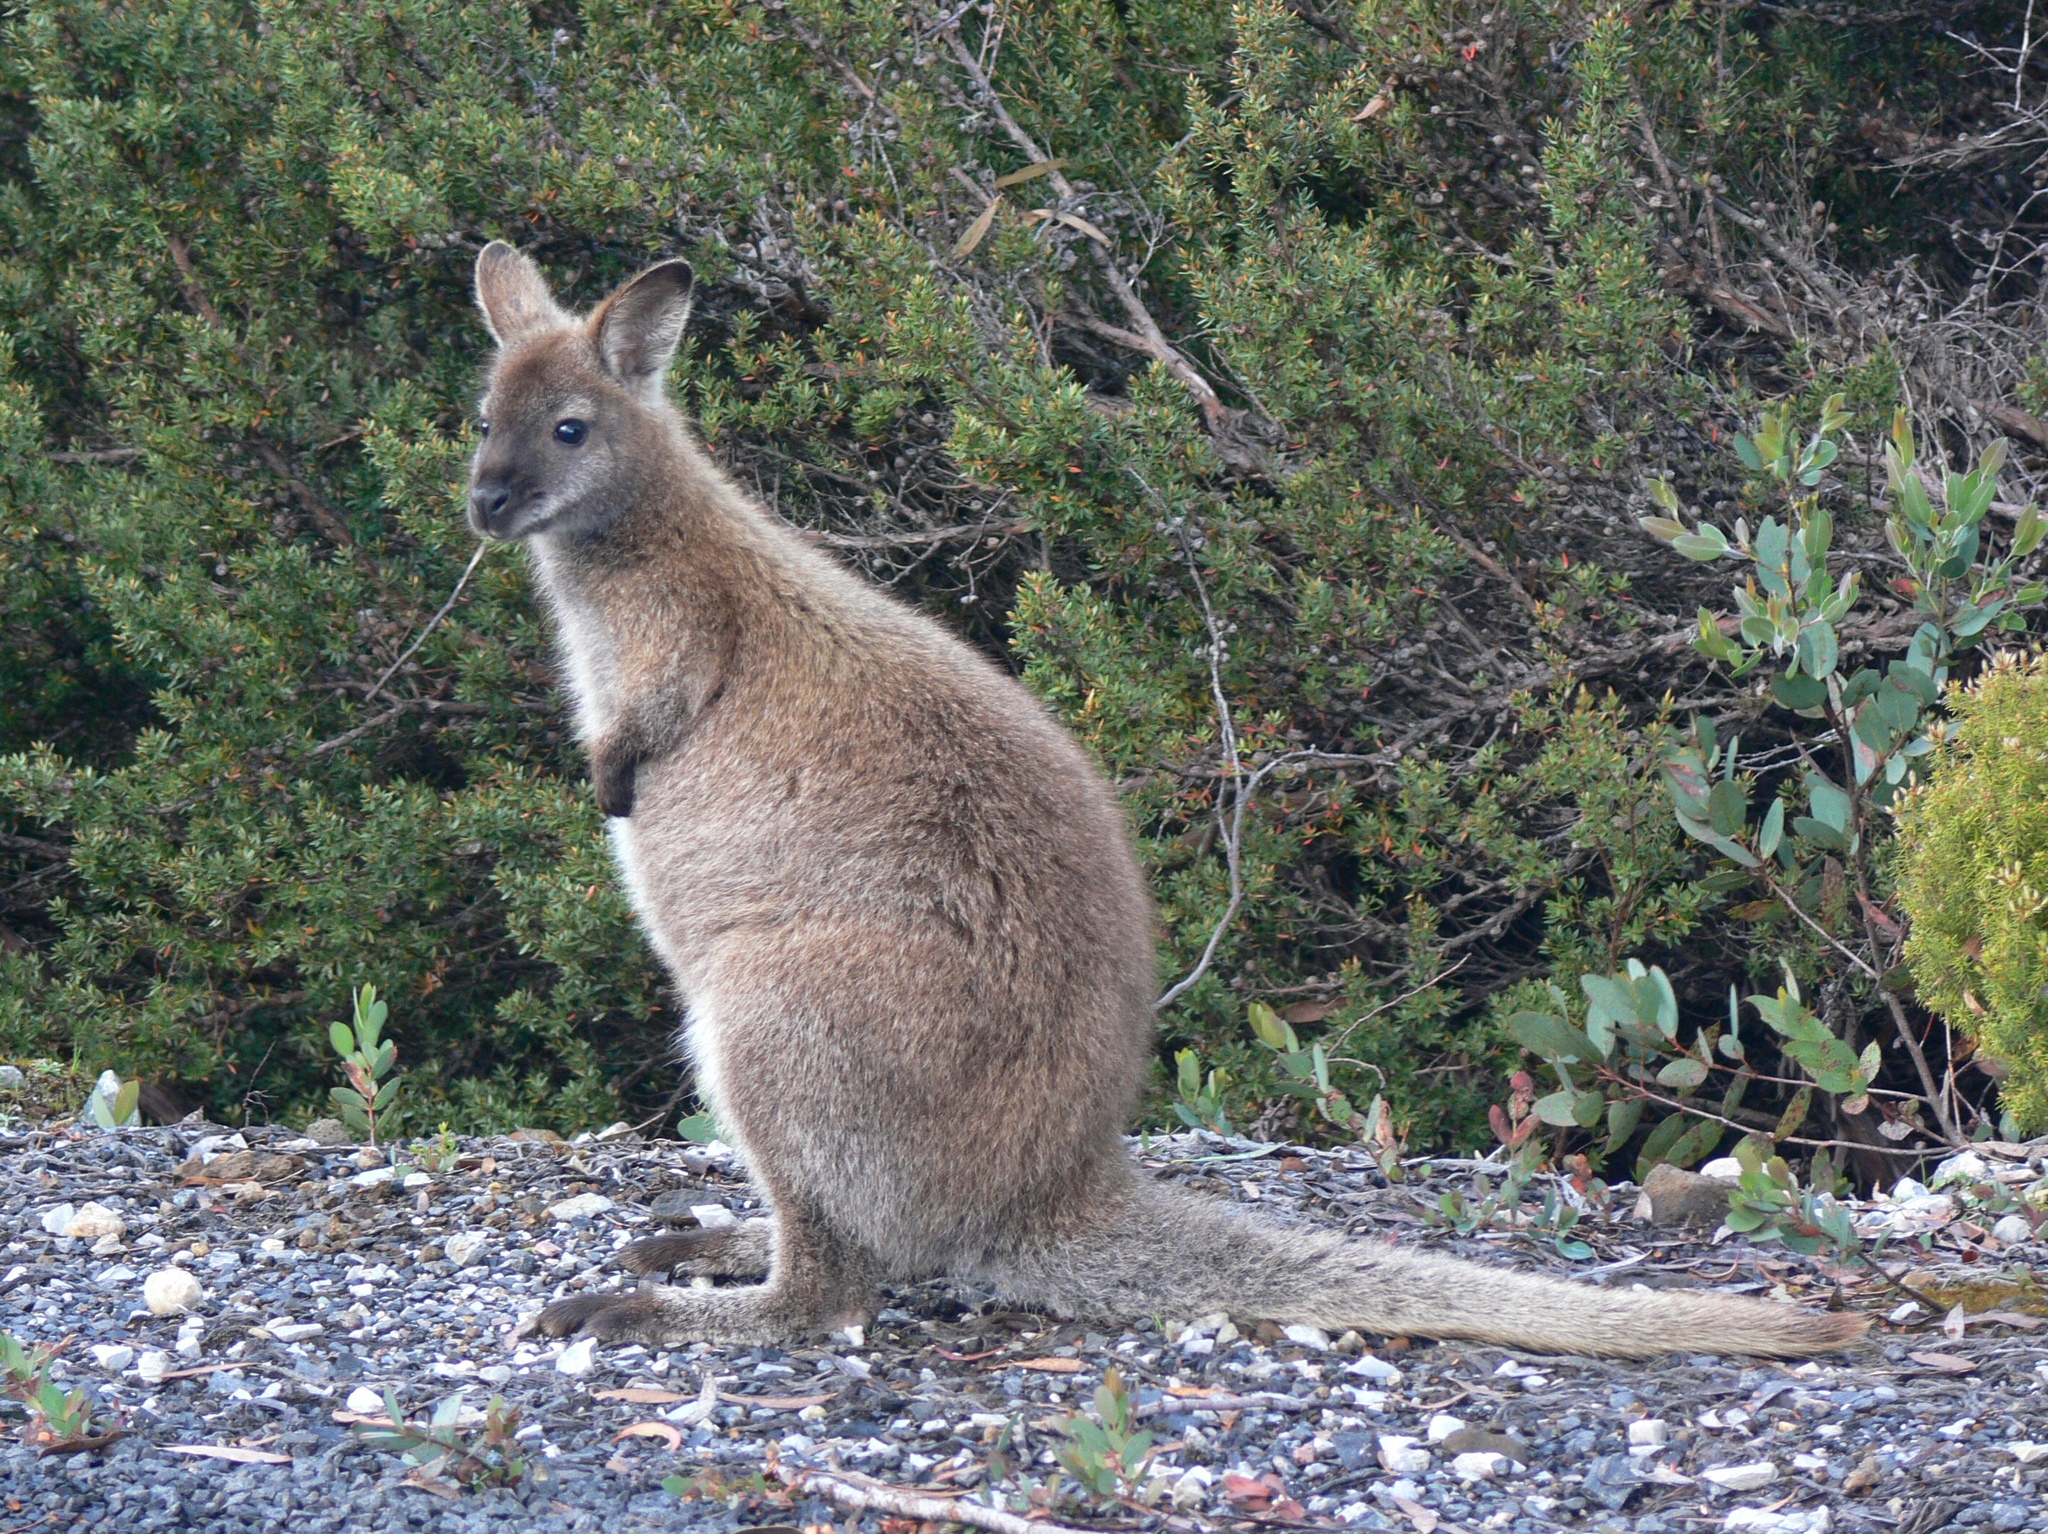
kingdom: Animalia
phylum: Chordata
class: Mammalia
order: Diprotodontia
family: Macropodidae
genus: Notamacropus
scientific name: Notamacropus rufogriseus
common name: Red-necked wallaby
